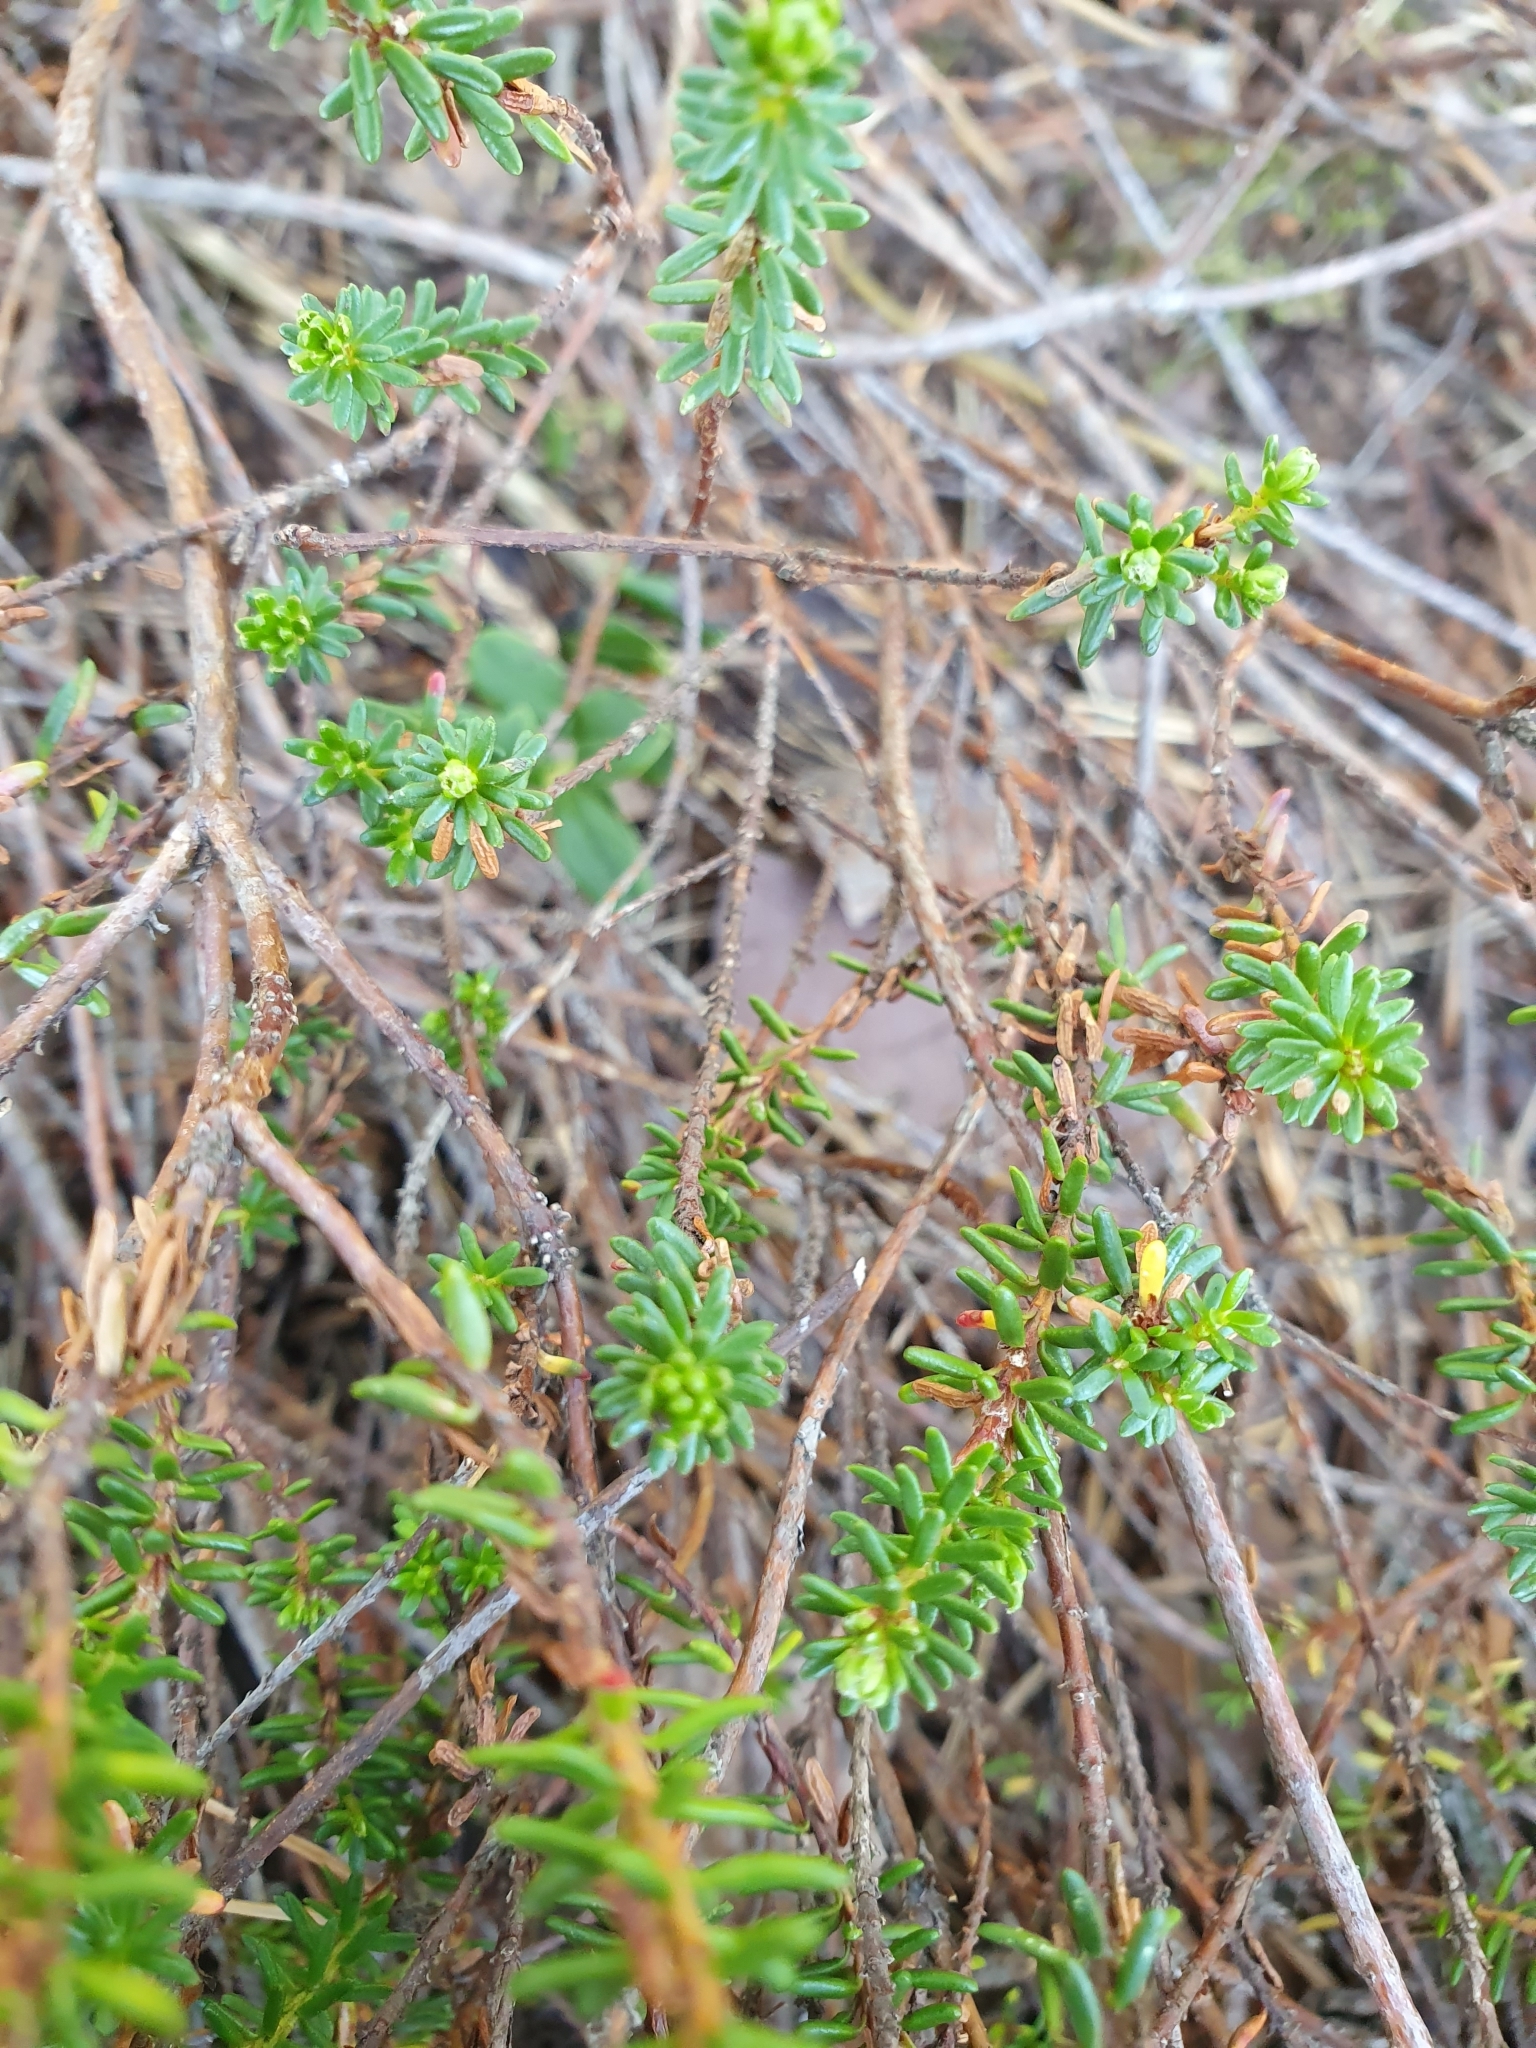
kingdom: Plantae
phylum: Tracheophyta
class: Magnoliopsida
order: Ericales
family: Ericaceae
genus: Empetrum
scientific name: Empetrum nigrum
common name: Black crowberry
